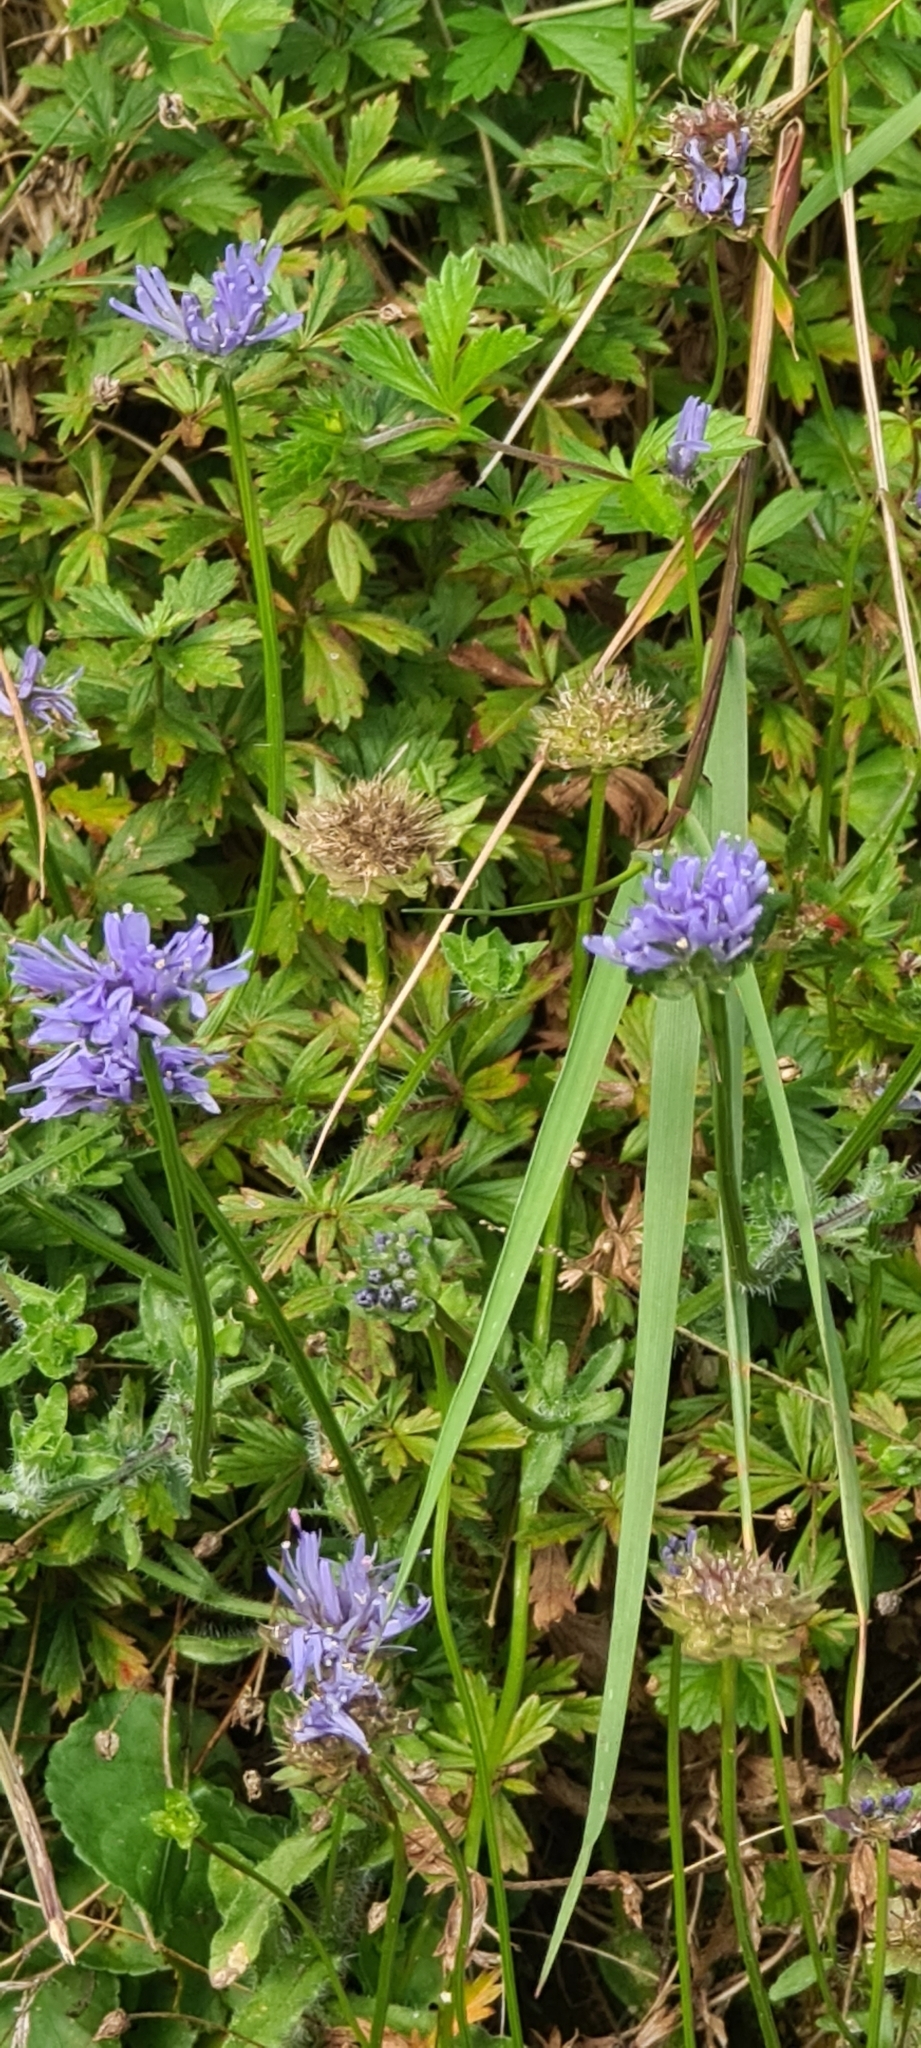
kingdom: Plantae
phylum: Tracheophyta
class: Magnoliopsida
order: Asterales
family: Campanulaceae
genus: Jasione
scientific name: Jasione montana
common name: Sheep's-bit
